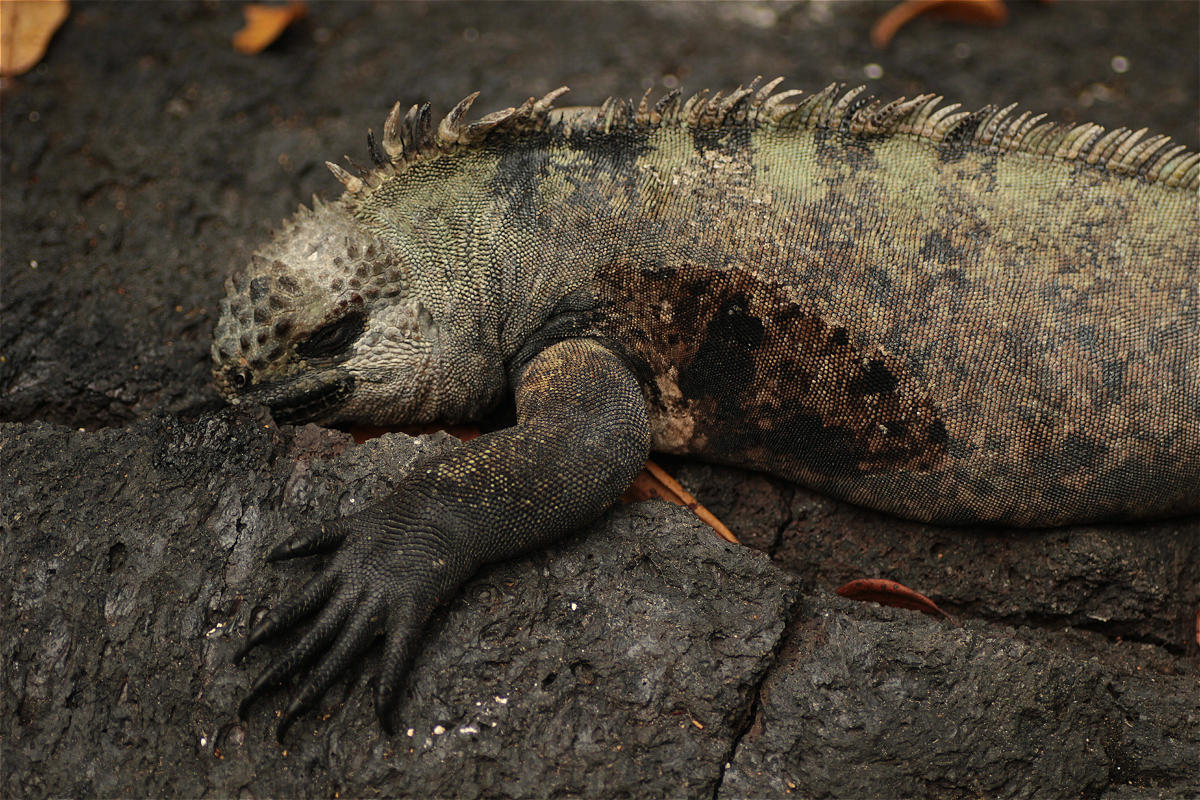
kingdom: Animalia
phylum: Chordata
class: Squamata
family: Iguanidae
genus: Amblyrhynchus
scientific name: Amblyrhynchus cristatus
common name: Marine iguana
